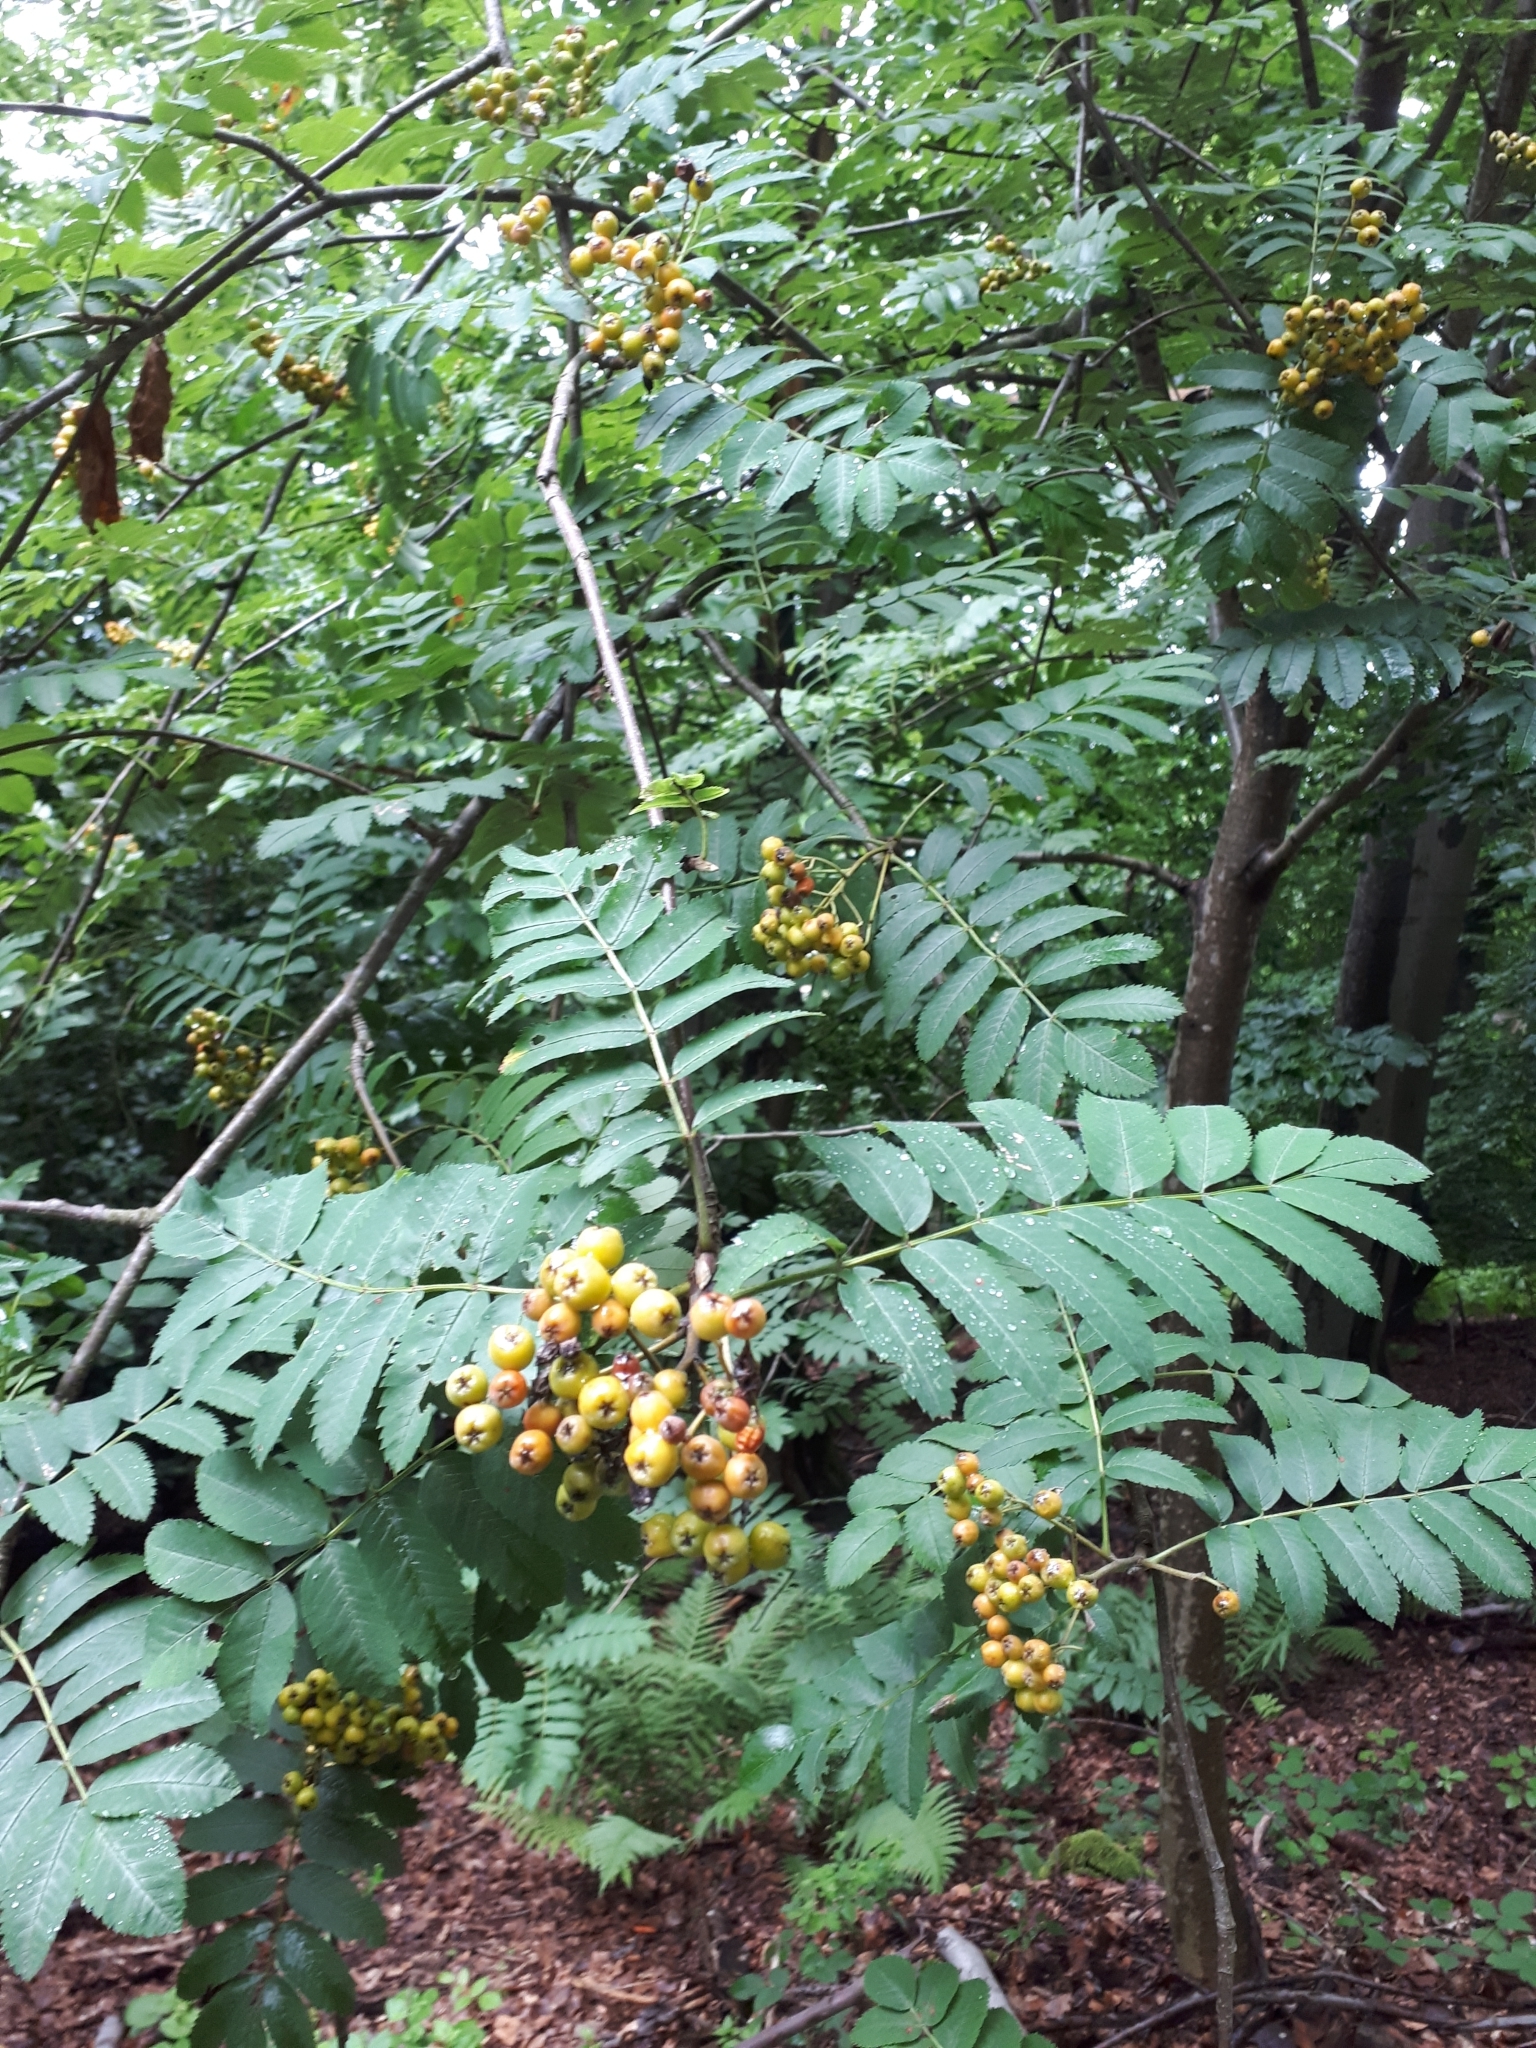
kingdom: Plantae
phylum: Tracheophyta
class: Magnoliopsida
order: Rosales
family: Rosaceae
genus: Sorbus
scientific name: Sorbus aucuparia
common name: Rowan
